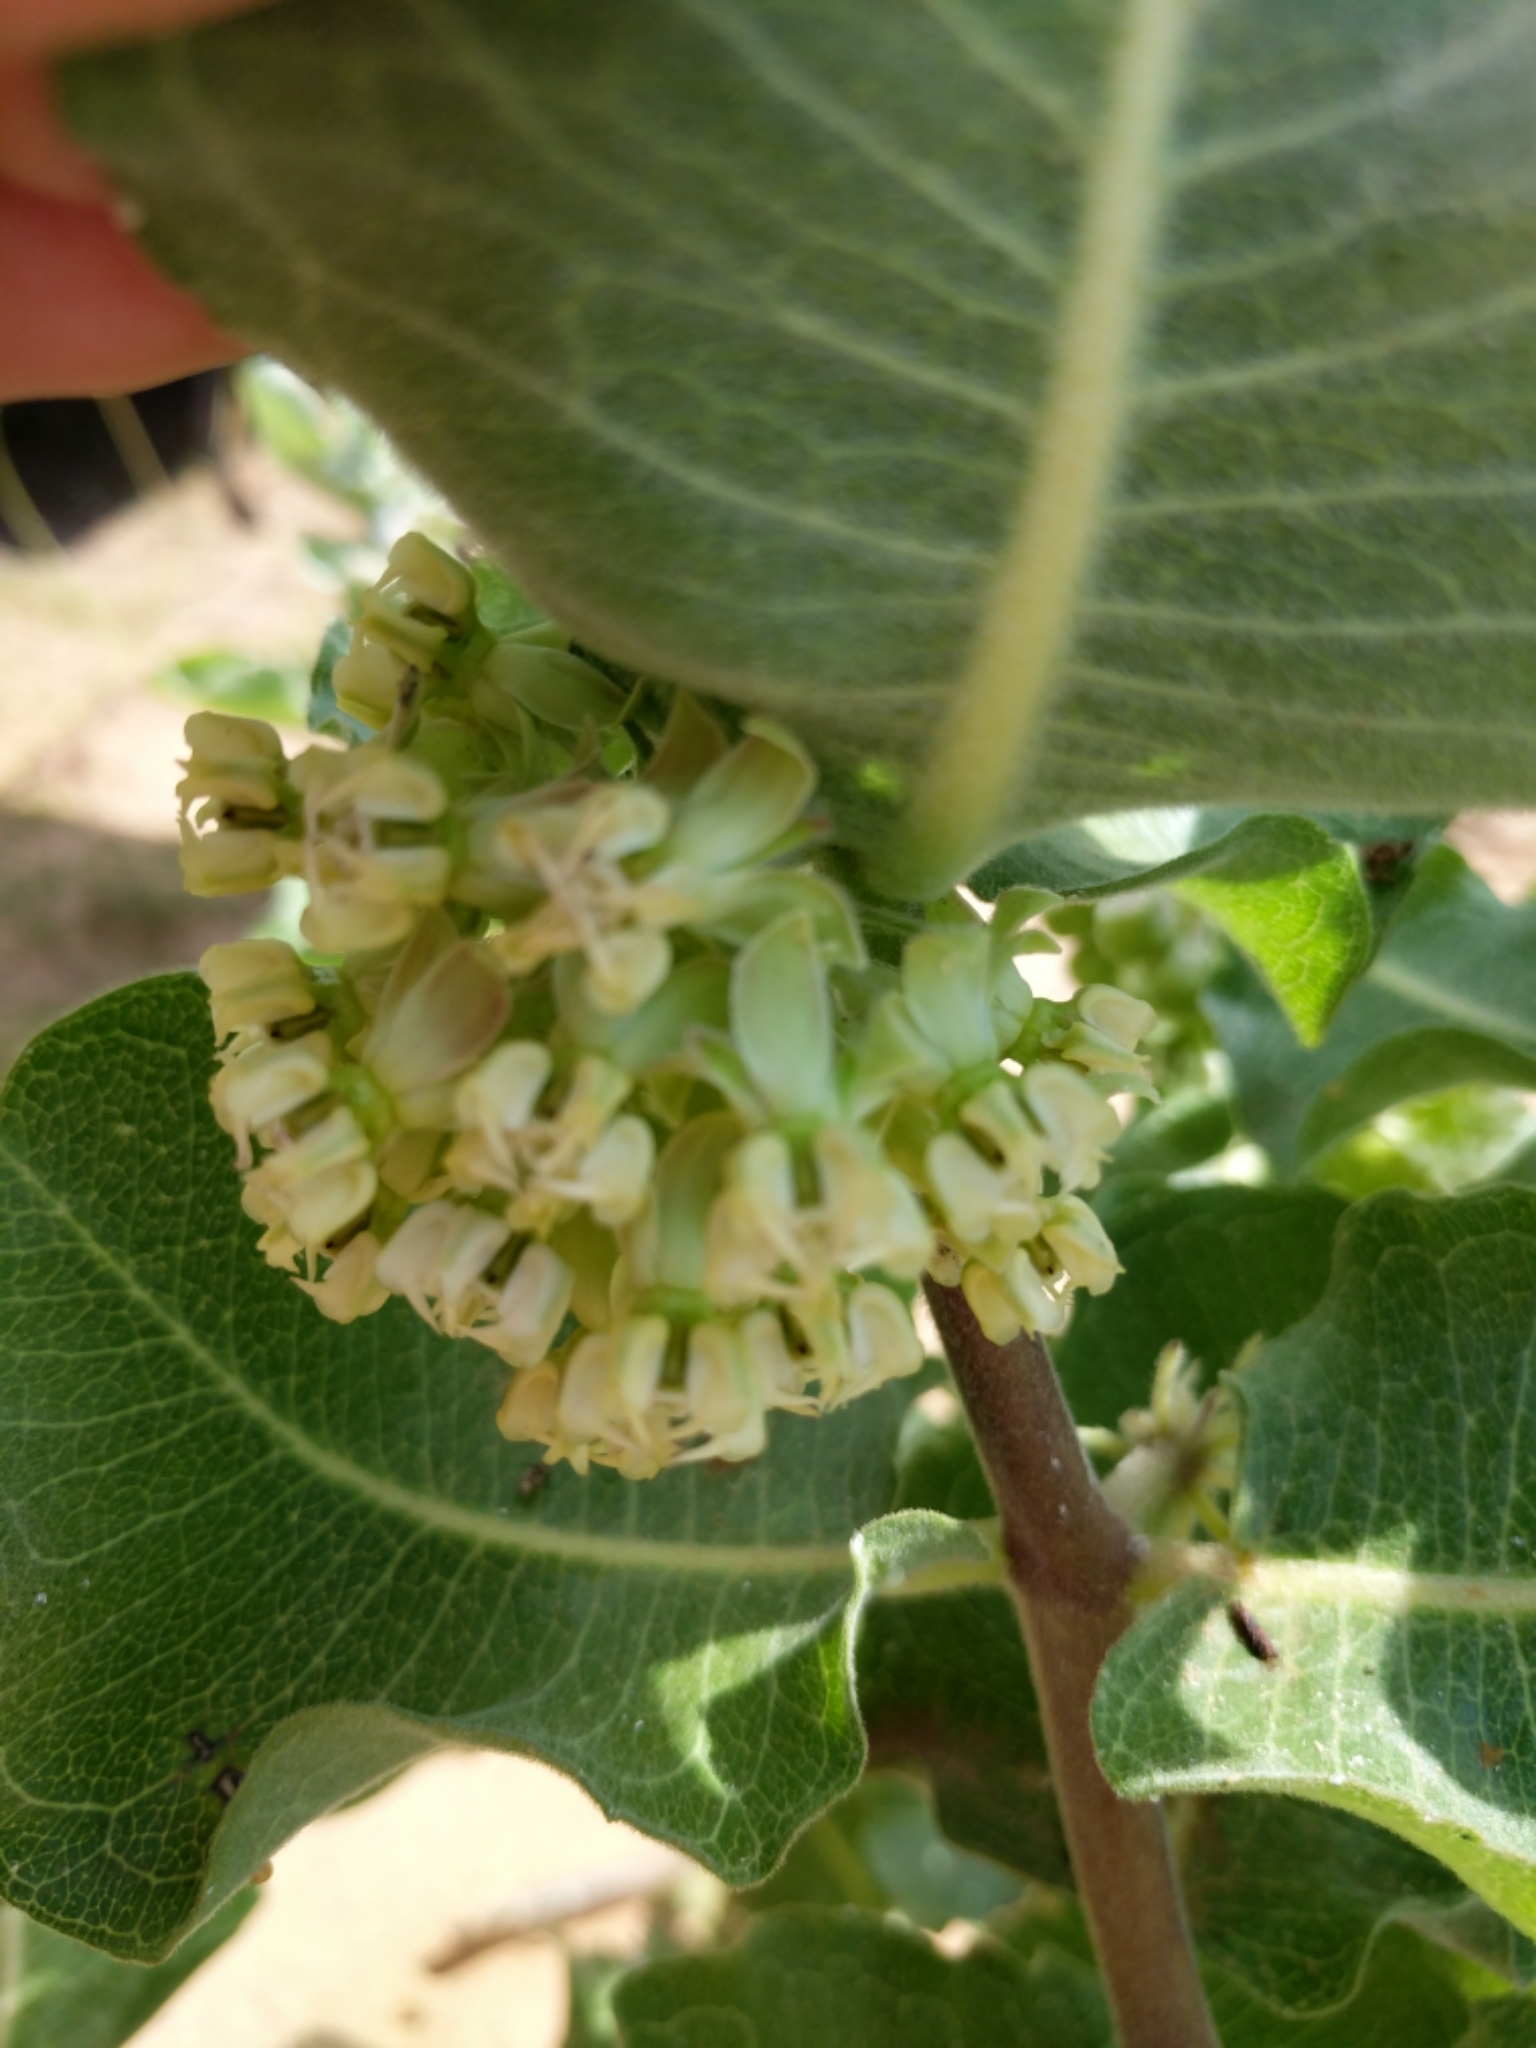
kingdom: Plantae
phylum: Tracheophyta
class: Magnoliopsida
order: Gentianales
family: Apocynaceae
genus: Asclepias
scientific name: Asclepias arenaria
